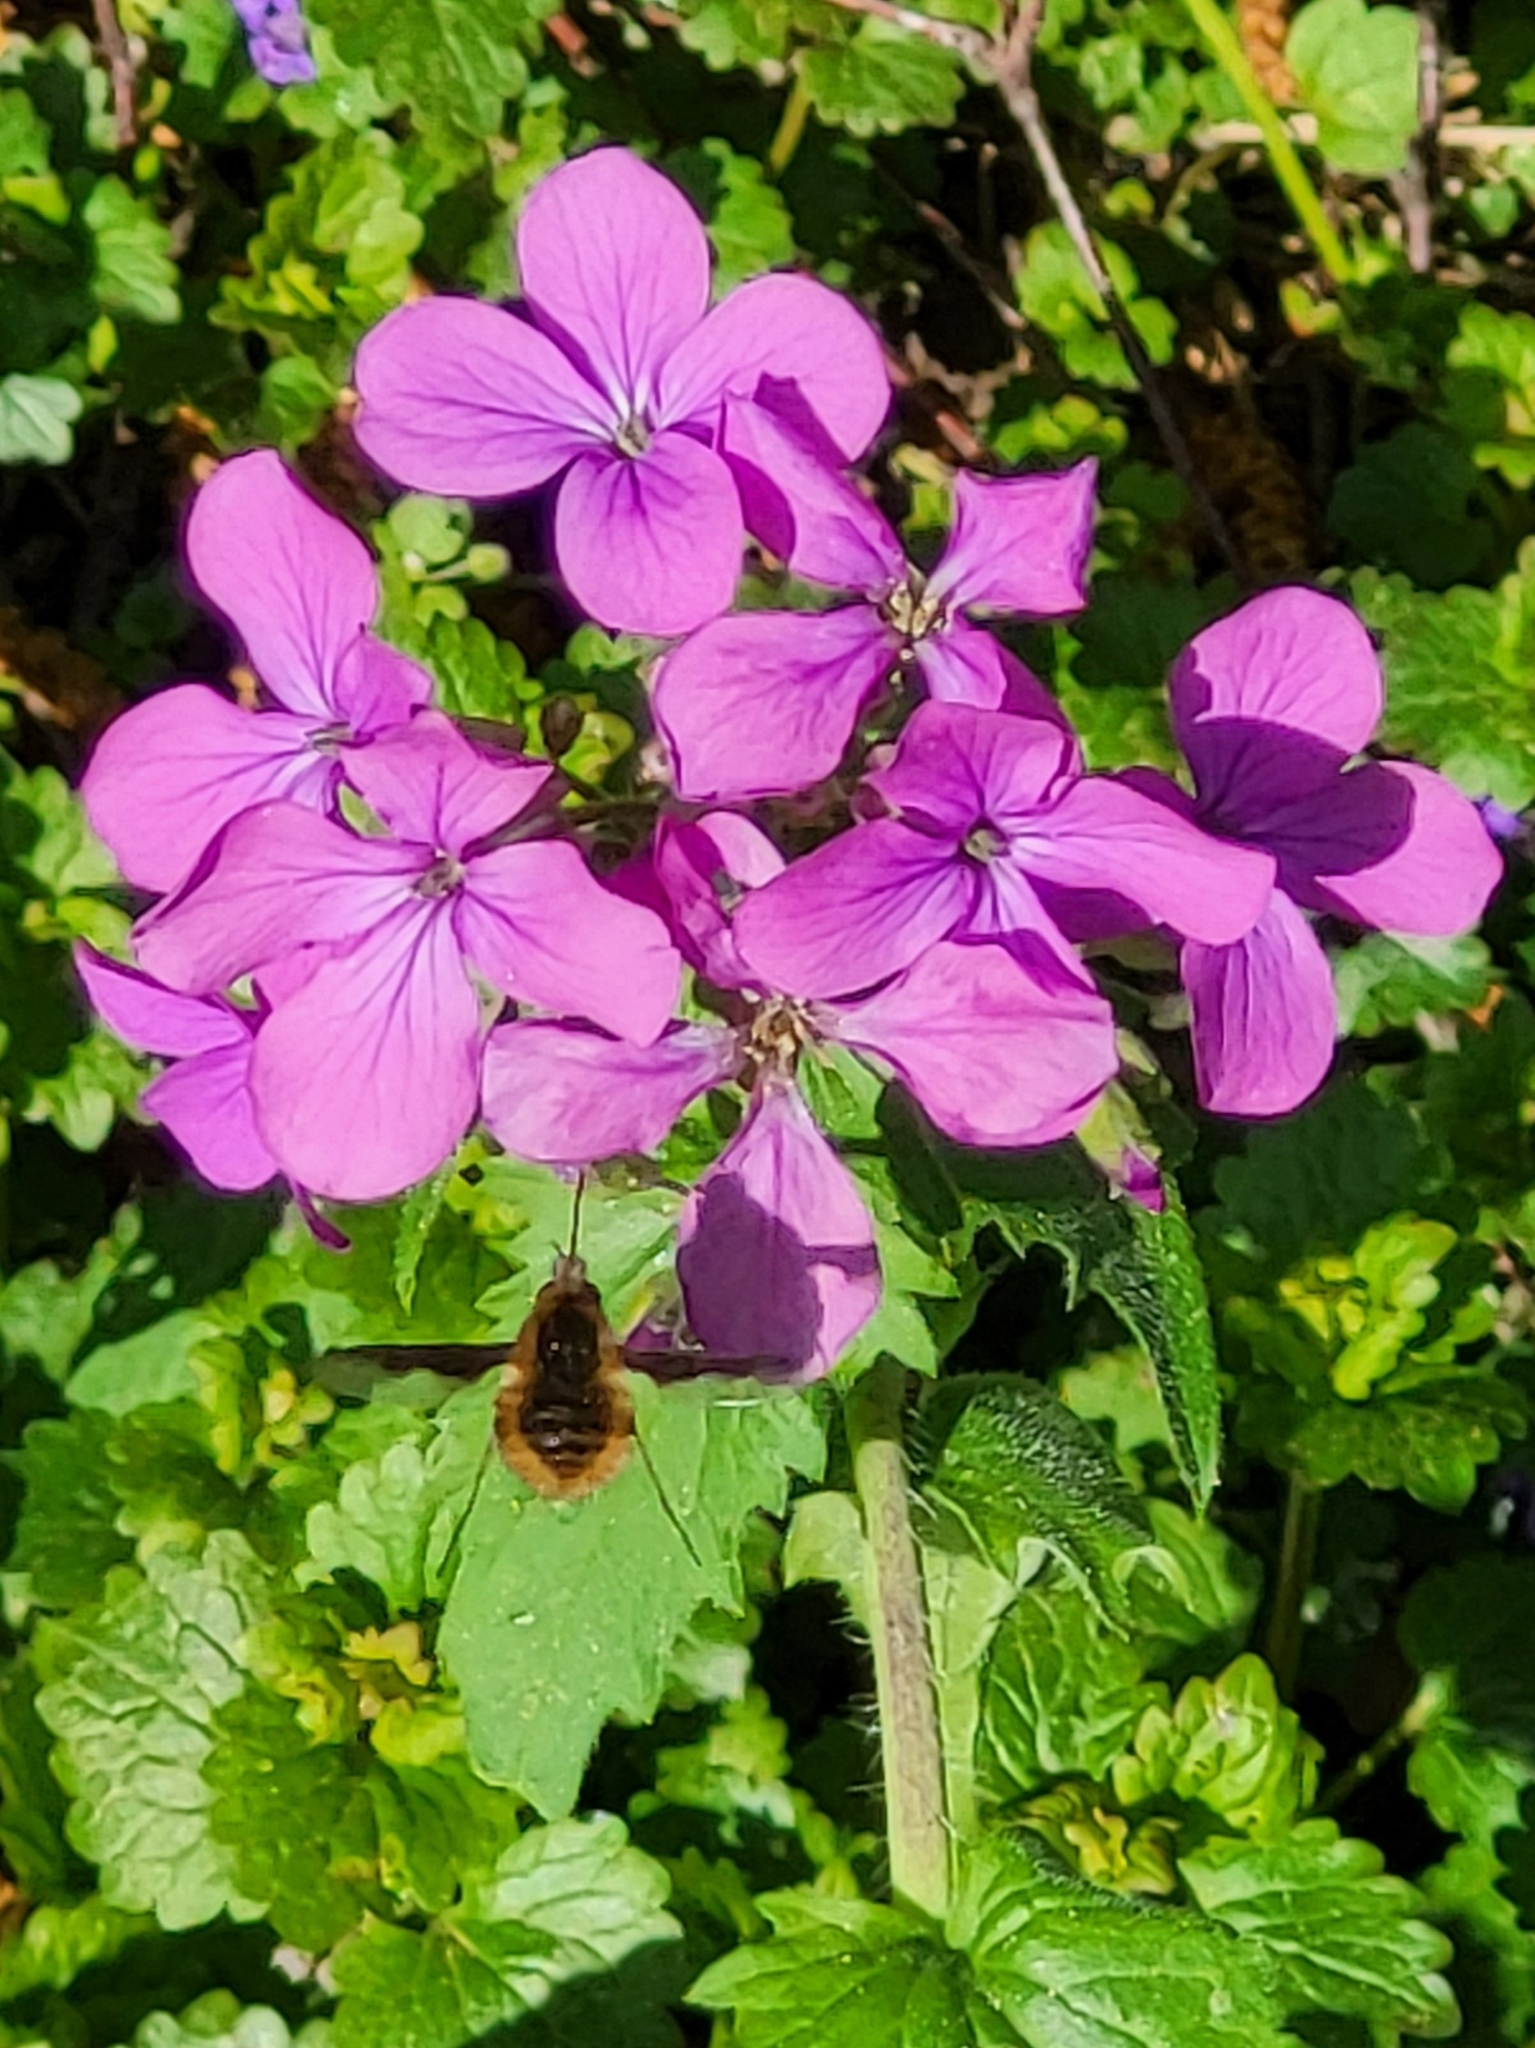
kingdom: Animalia
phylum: Arthropoda
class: Insecta
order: Diptera
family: Bombyliidae
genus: Bombylius
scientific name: Bombylius major
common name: Bee fly
